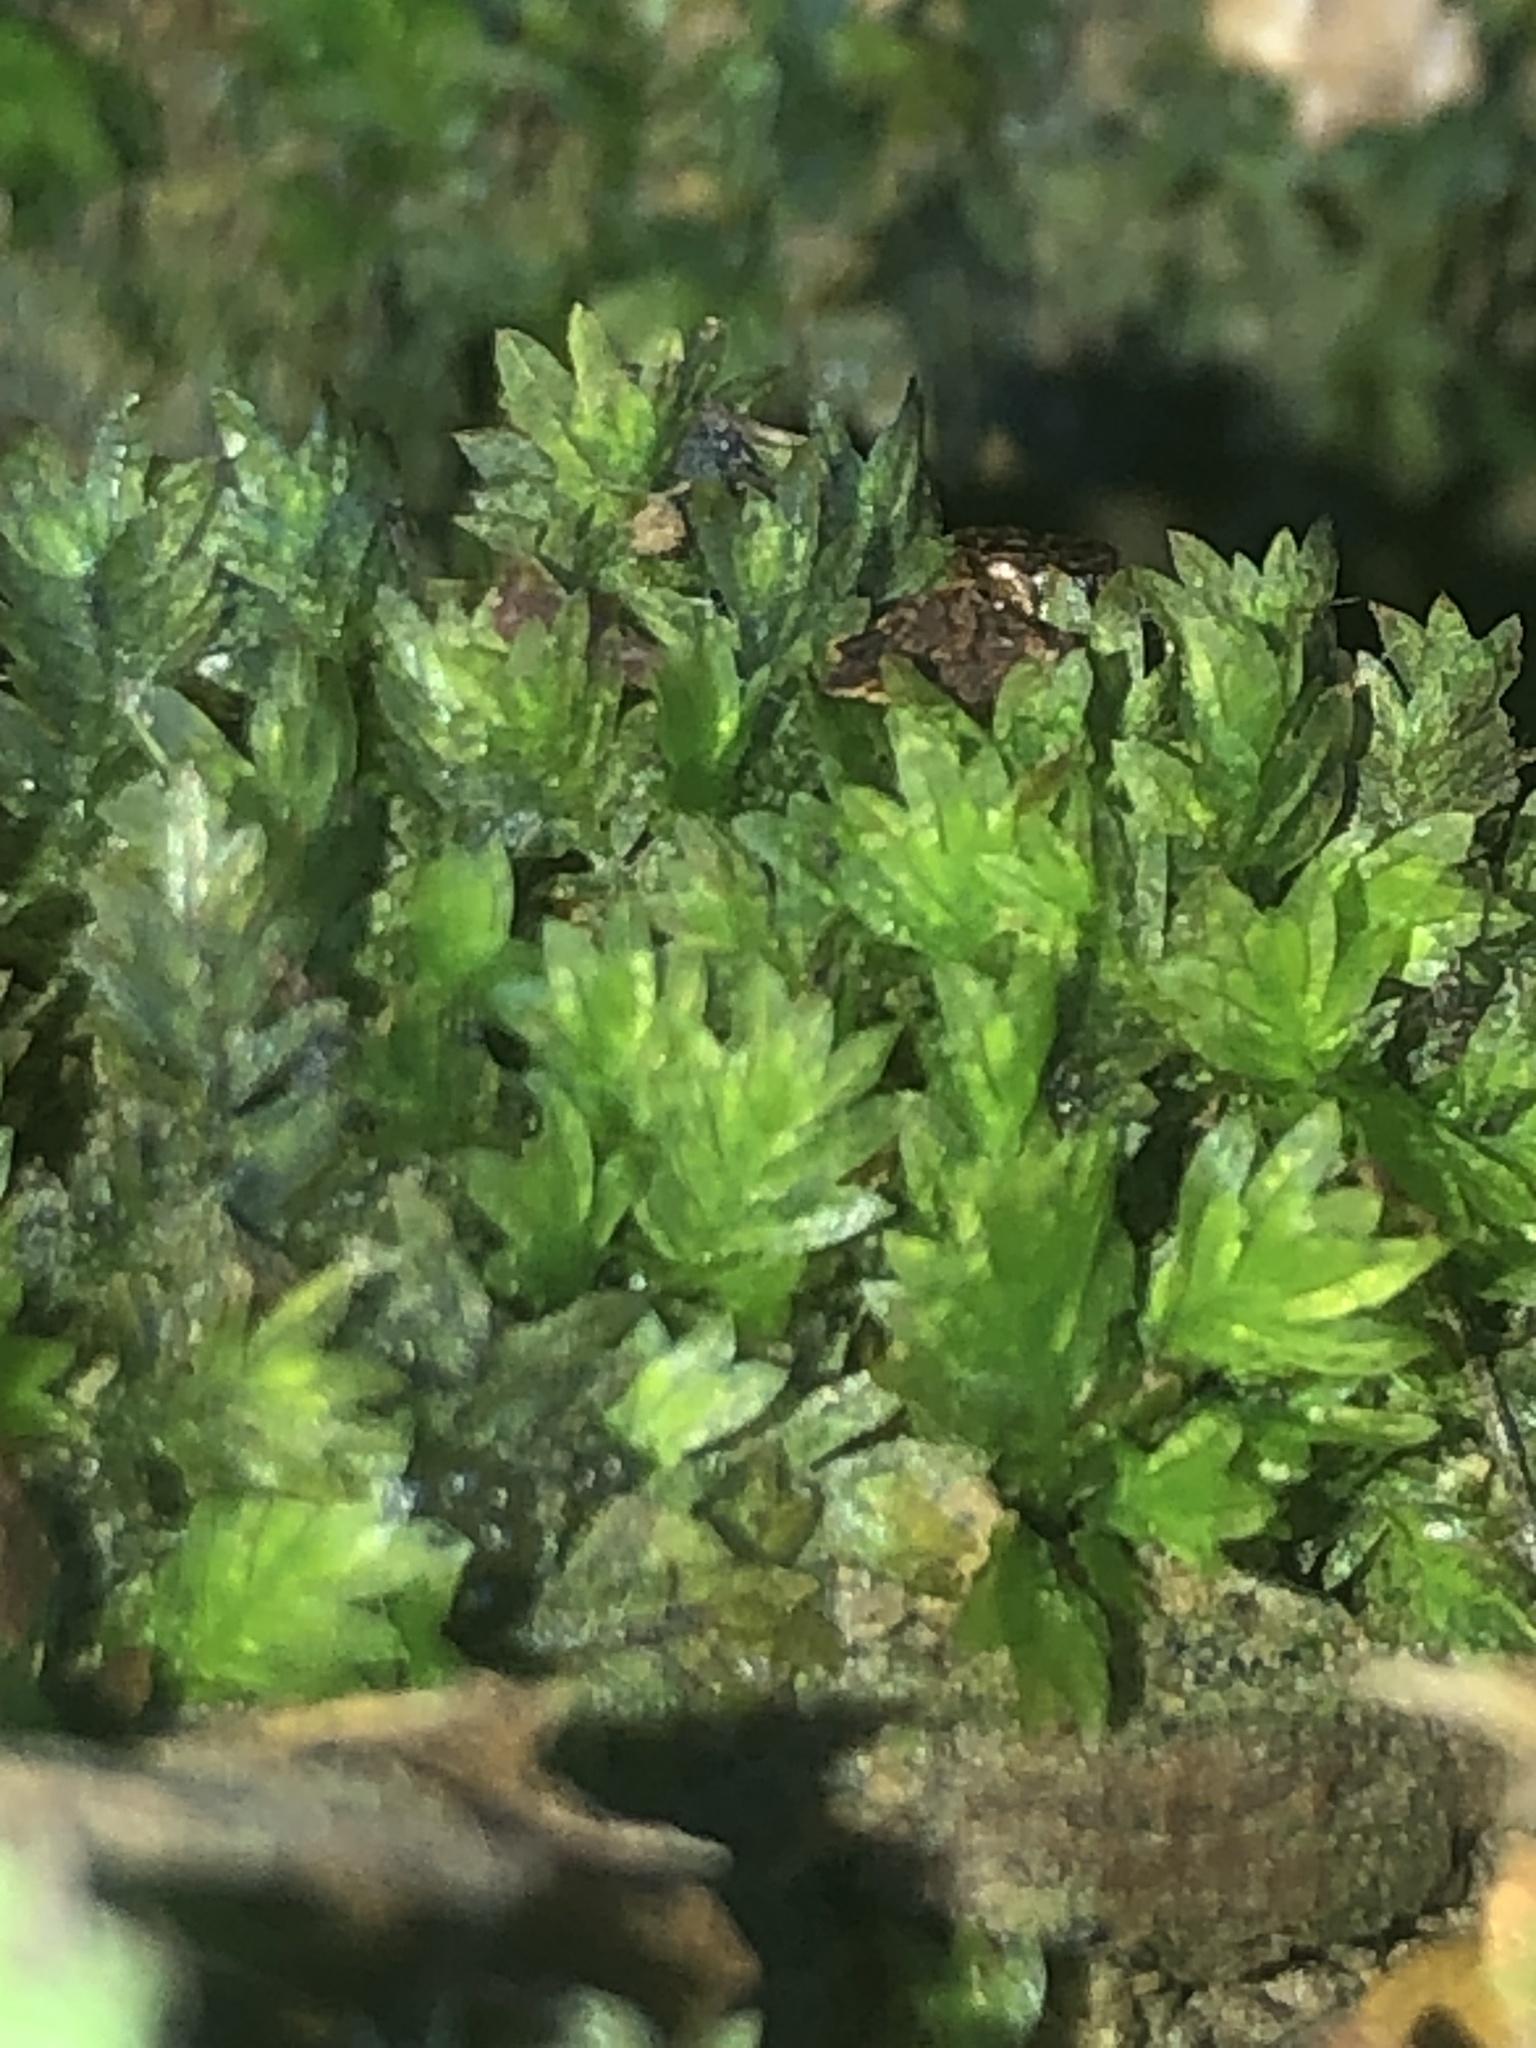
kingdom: Plantae
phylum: Bryophyta
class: Bryopsida
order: Dicranales
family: Fissidentaceae
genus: Fissidens
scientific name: Fissidens taxifolius
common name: Yew-leaved pocket moss
